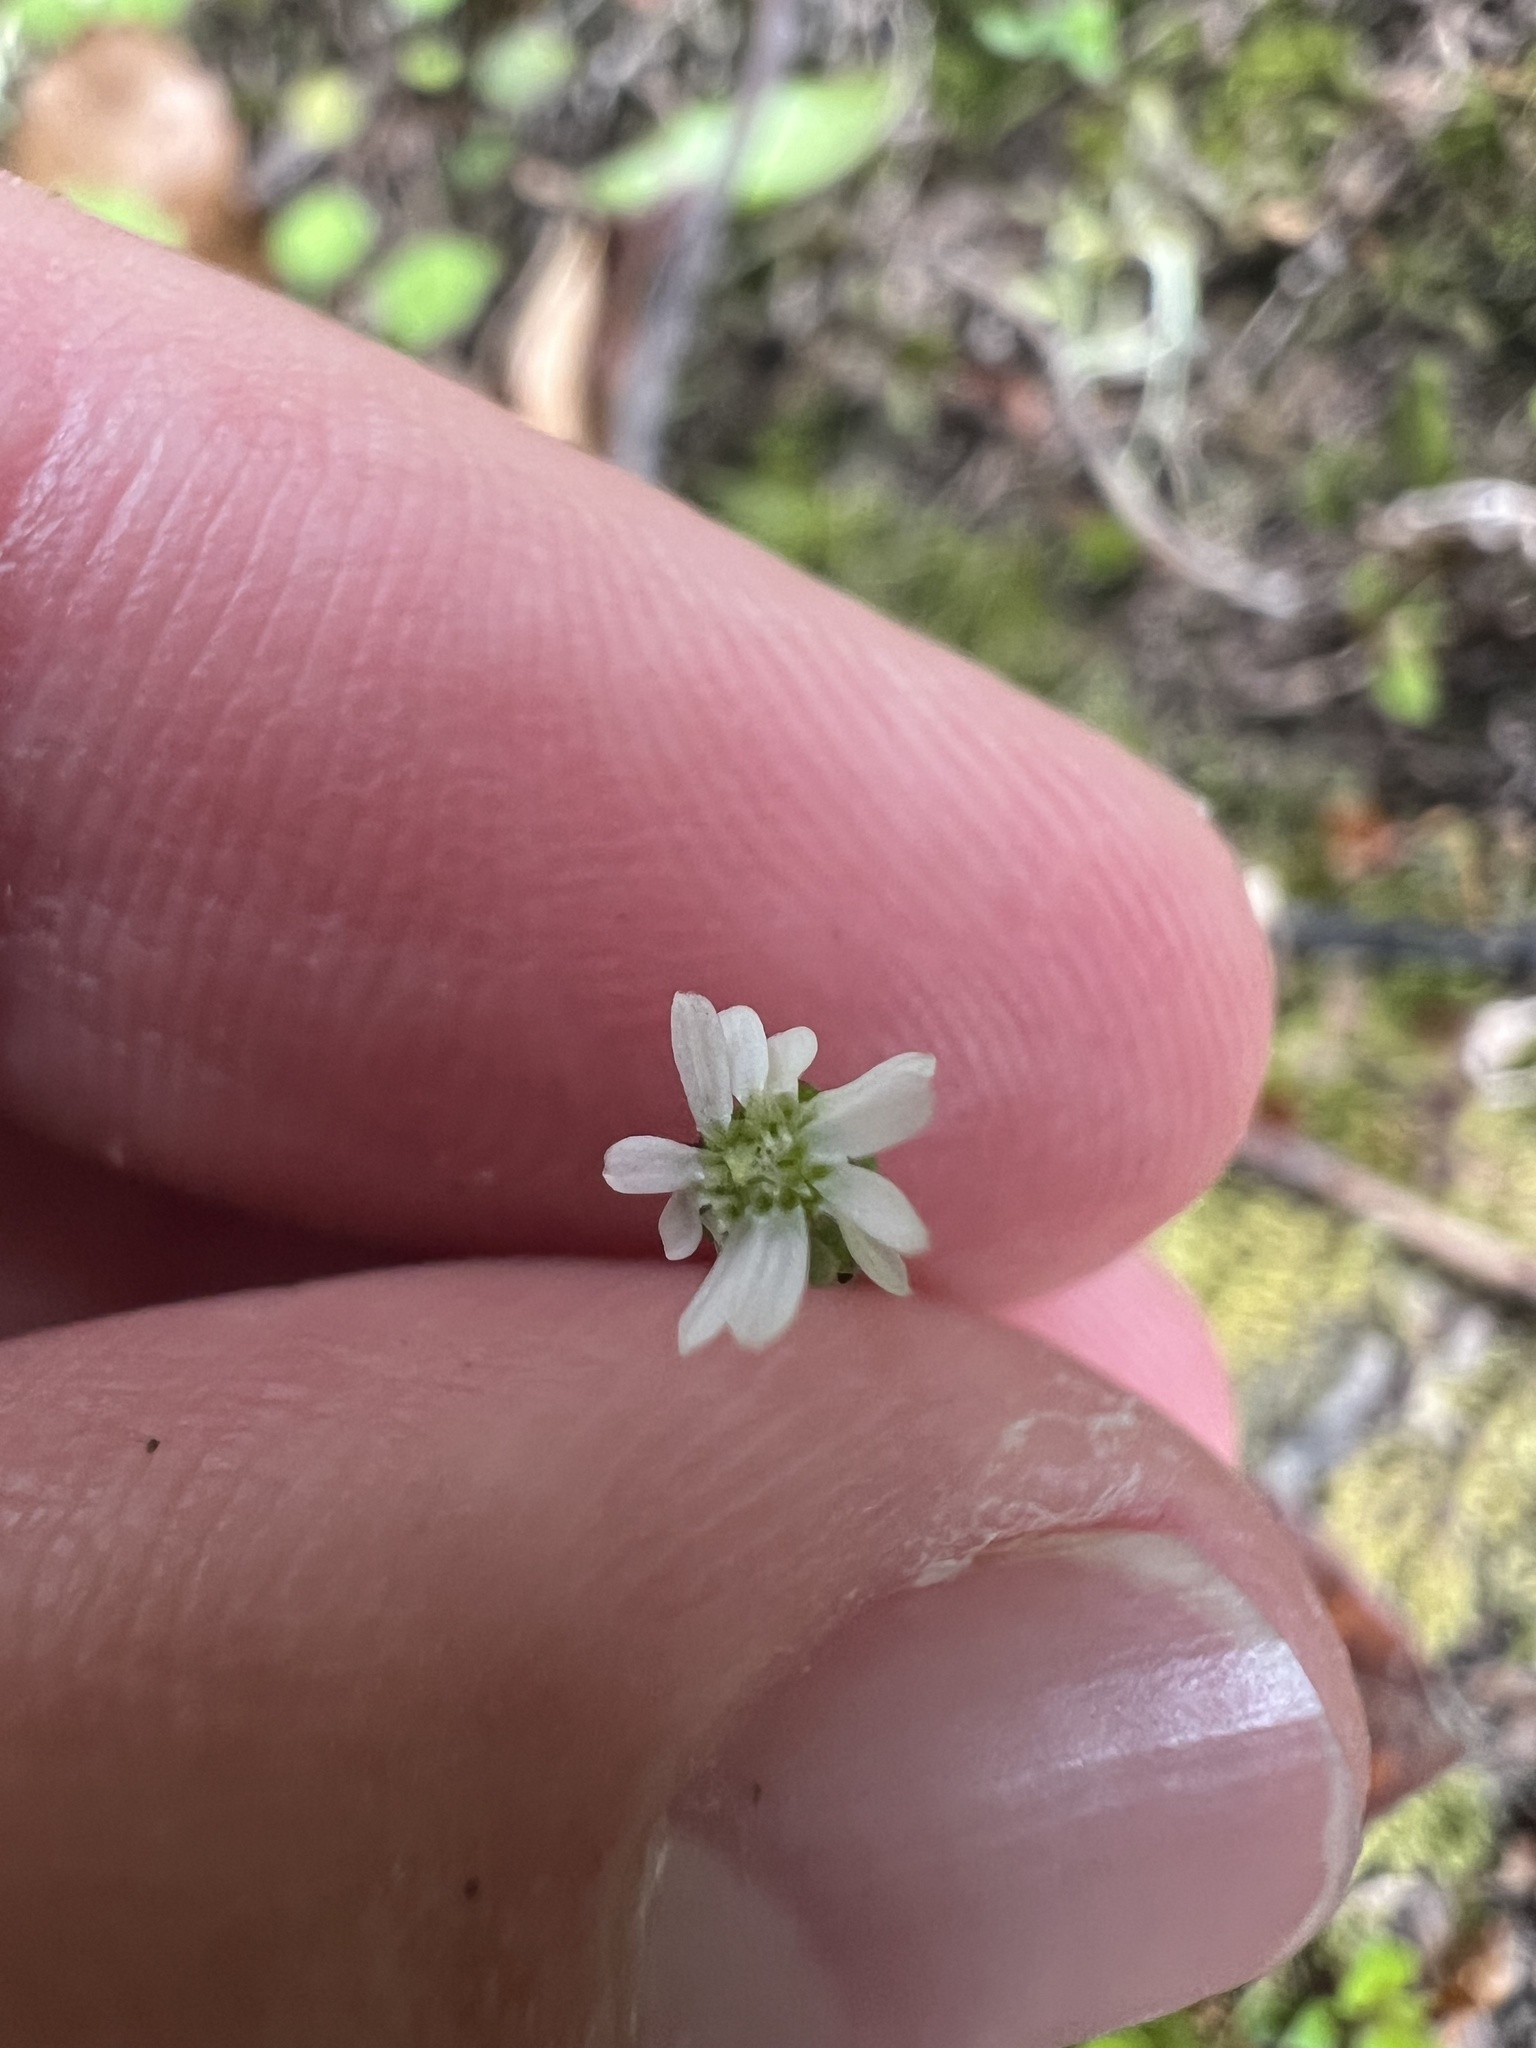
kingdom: Plantae
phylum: Tracheophyta
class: Magnoliopsida
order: Asterales
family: Asteraceae
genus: Lagenophora
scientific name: Lagenophora strangulata
